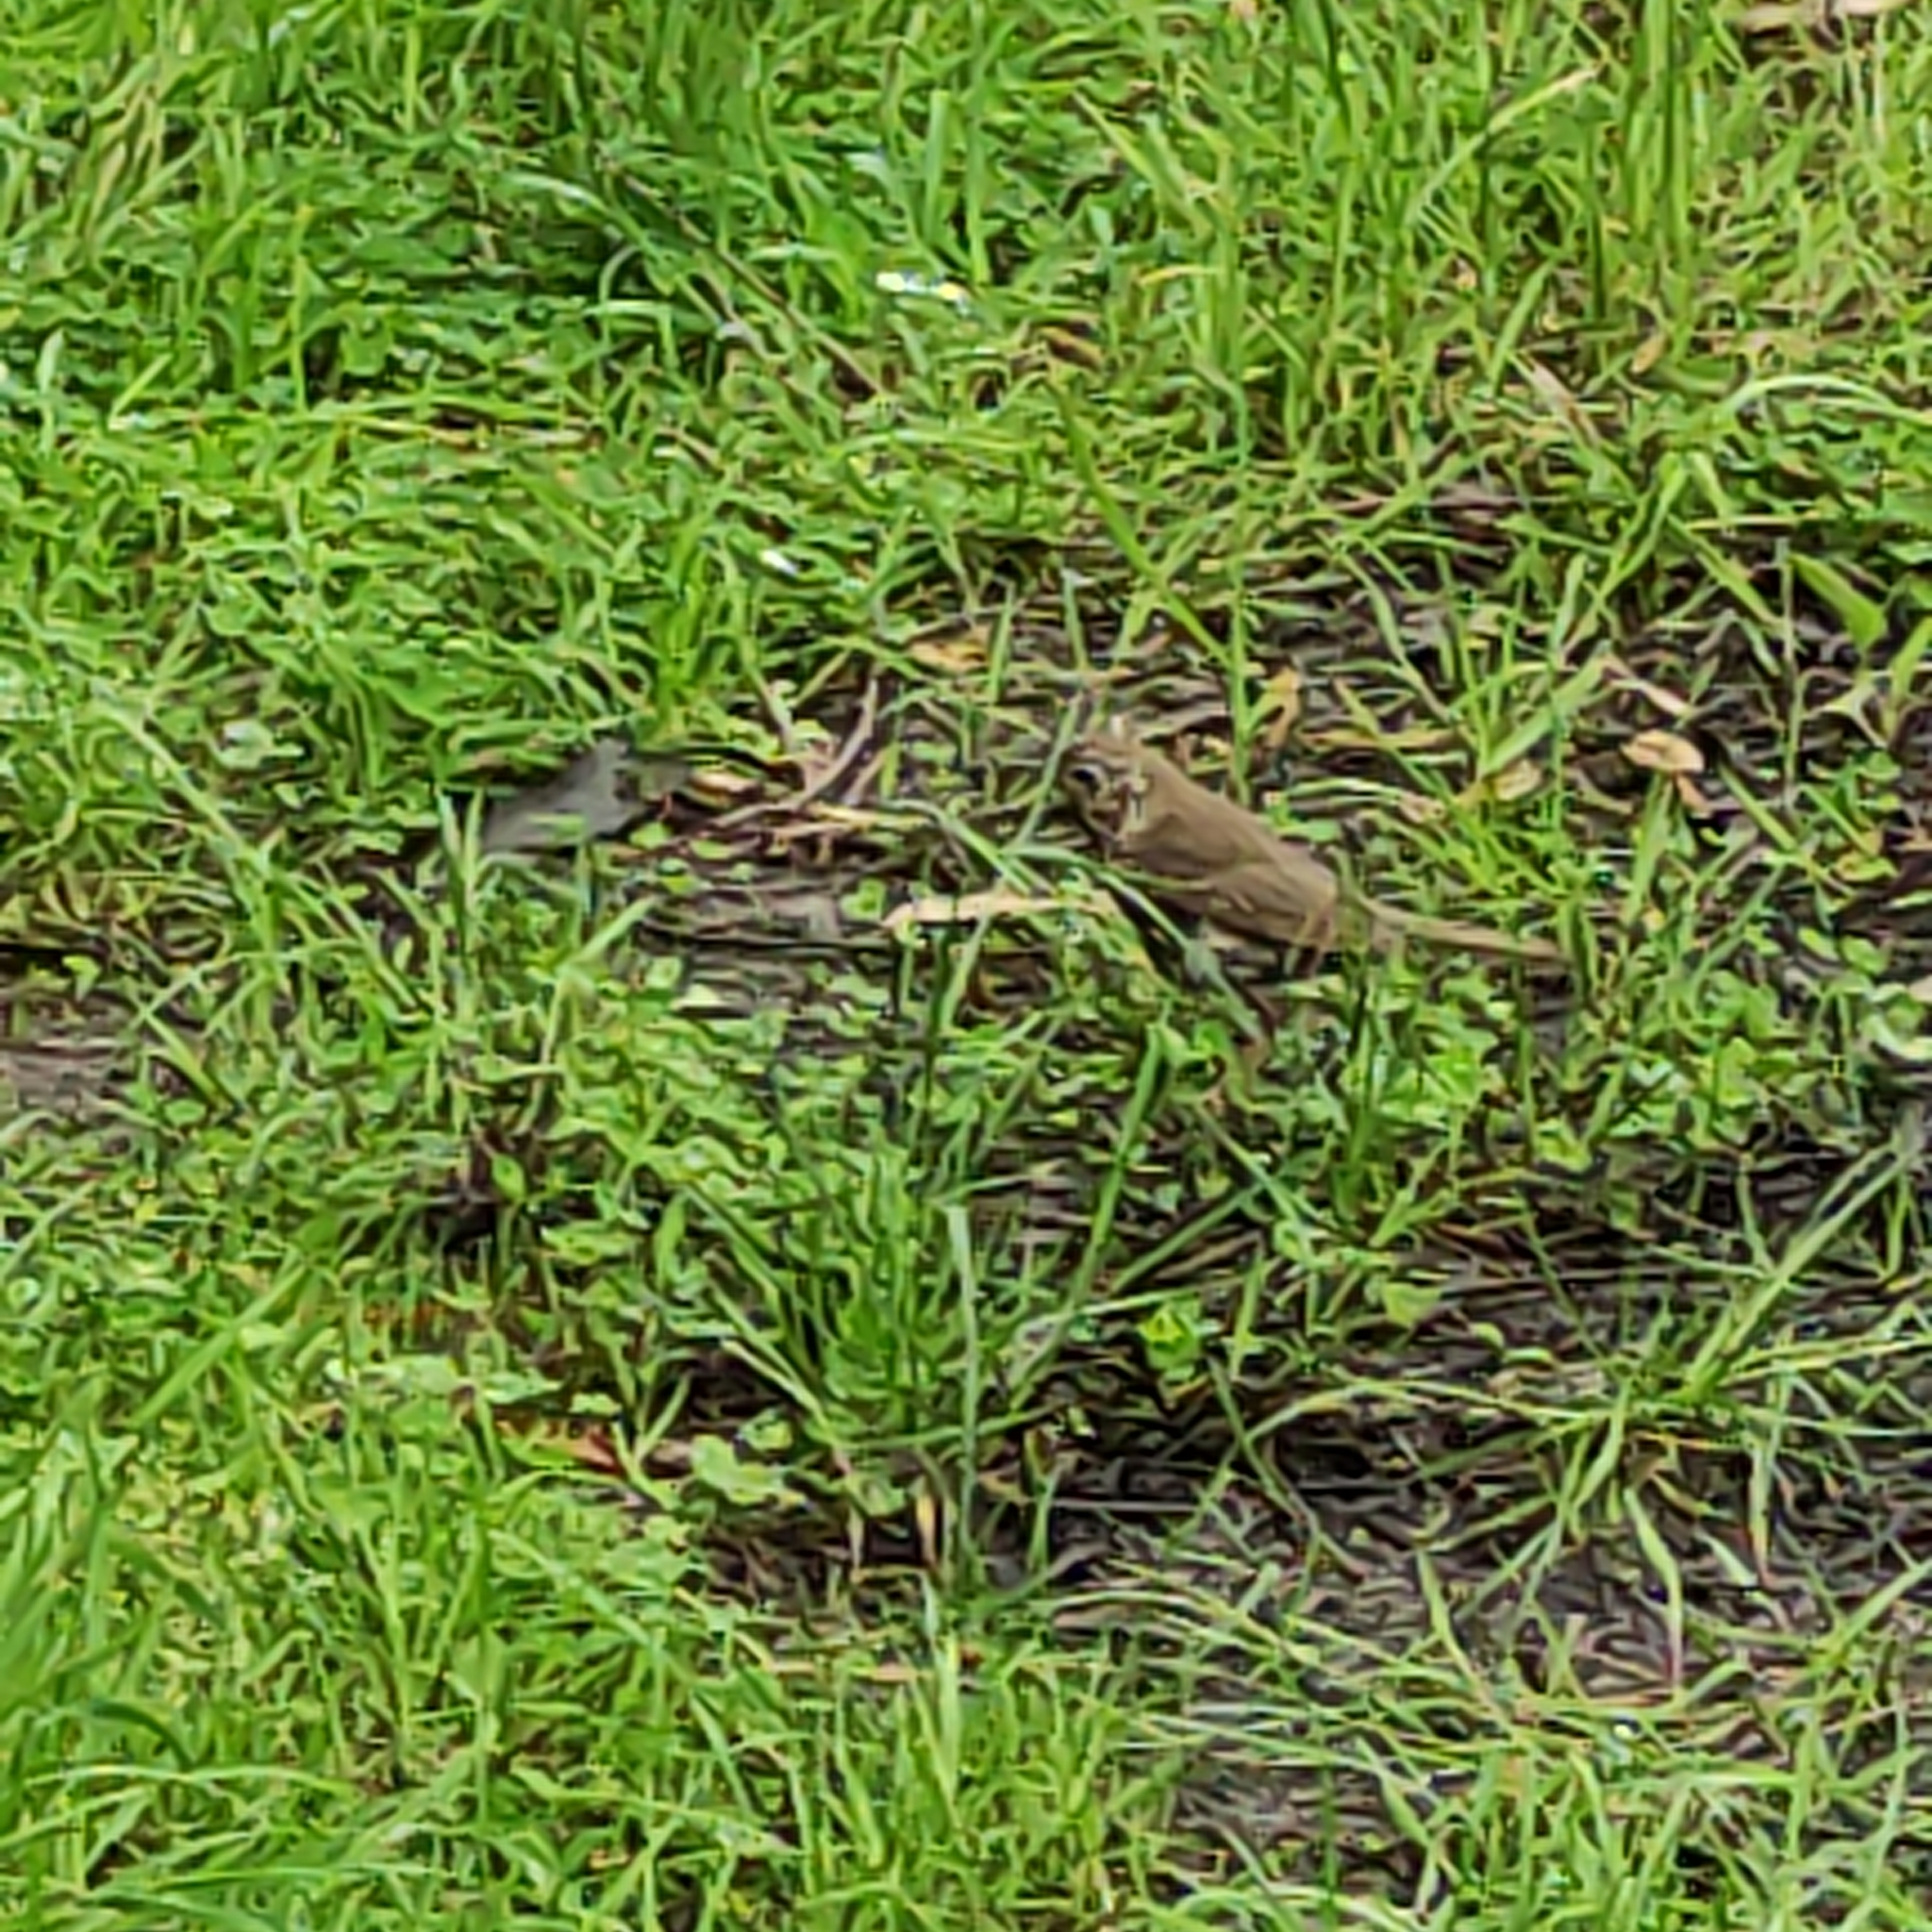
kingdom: Animalia
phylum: Chordata
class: Aves
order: Passeriformes
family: Turdidae
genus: Turdus
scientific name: Turdus philomelos
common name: Song thrush
